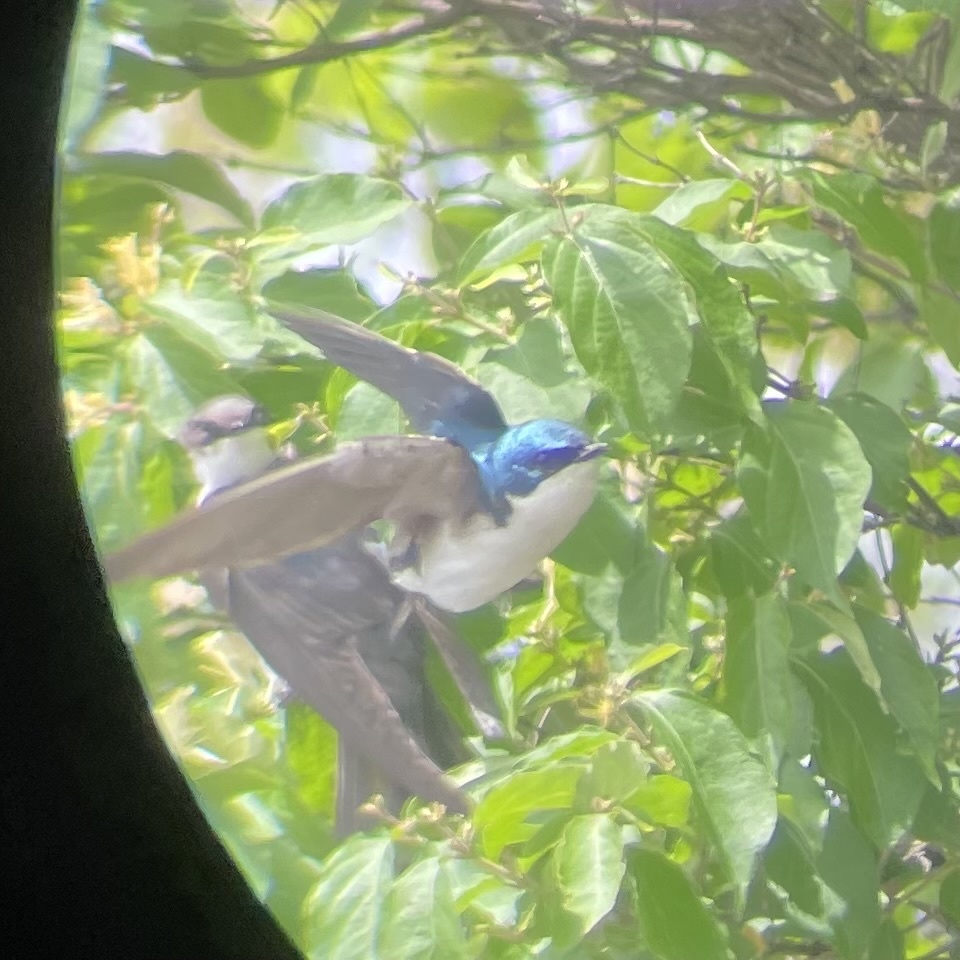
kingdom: Animalia
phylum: Chordata
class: Aves
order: Passeriformes
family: Hirundinidae
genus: Tachycineta
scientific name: Tachycineta bicolor
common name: Tree swallow
